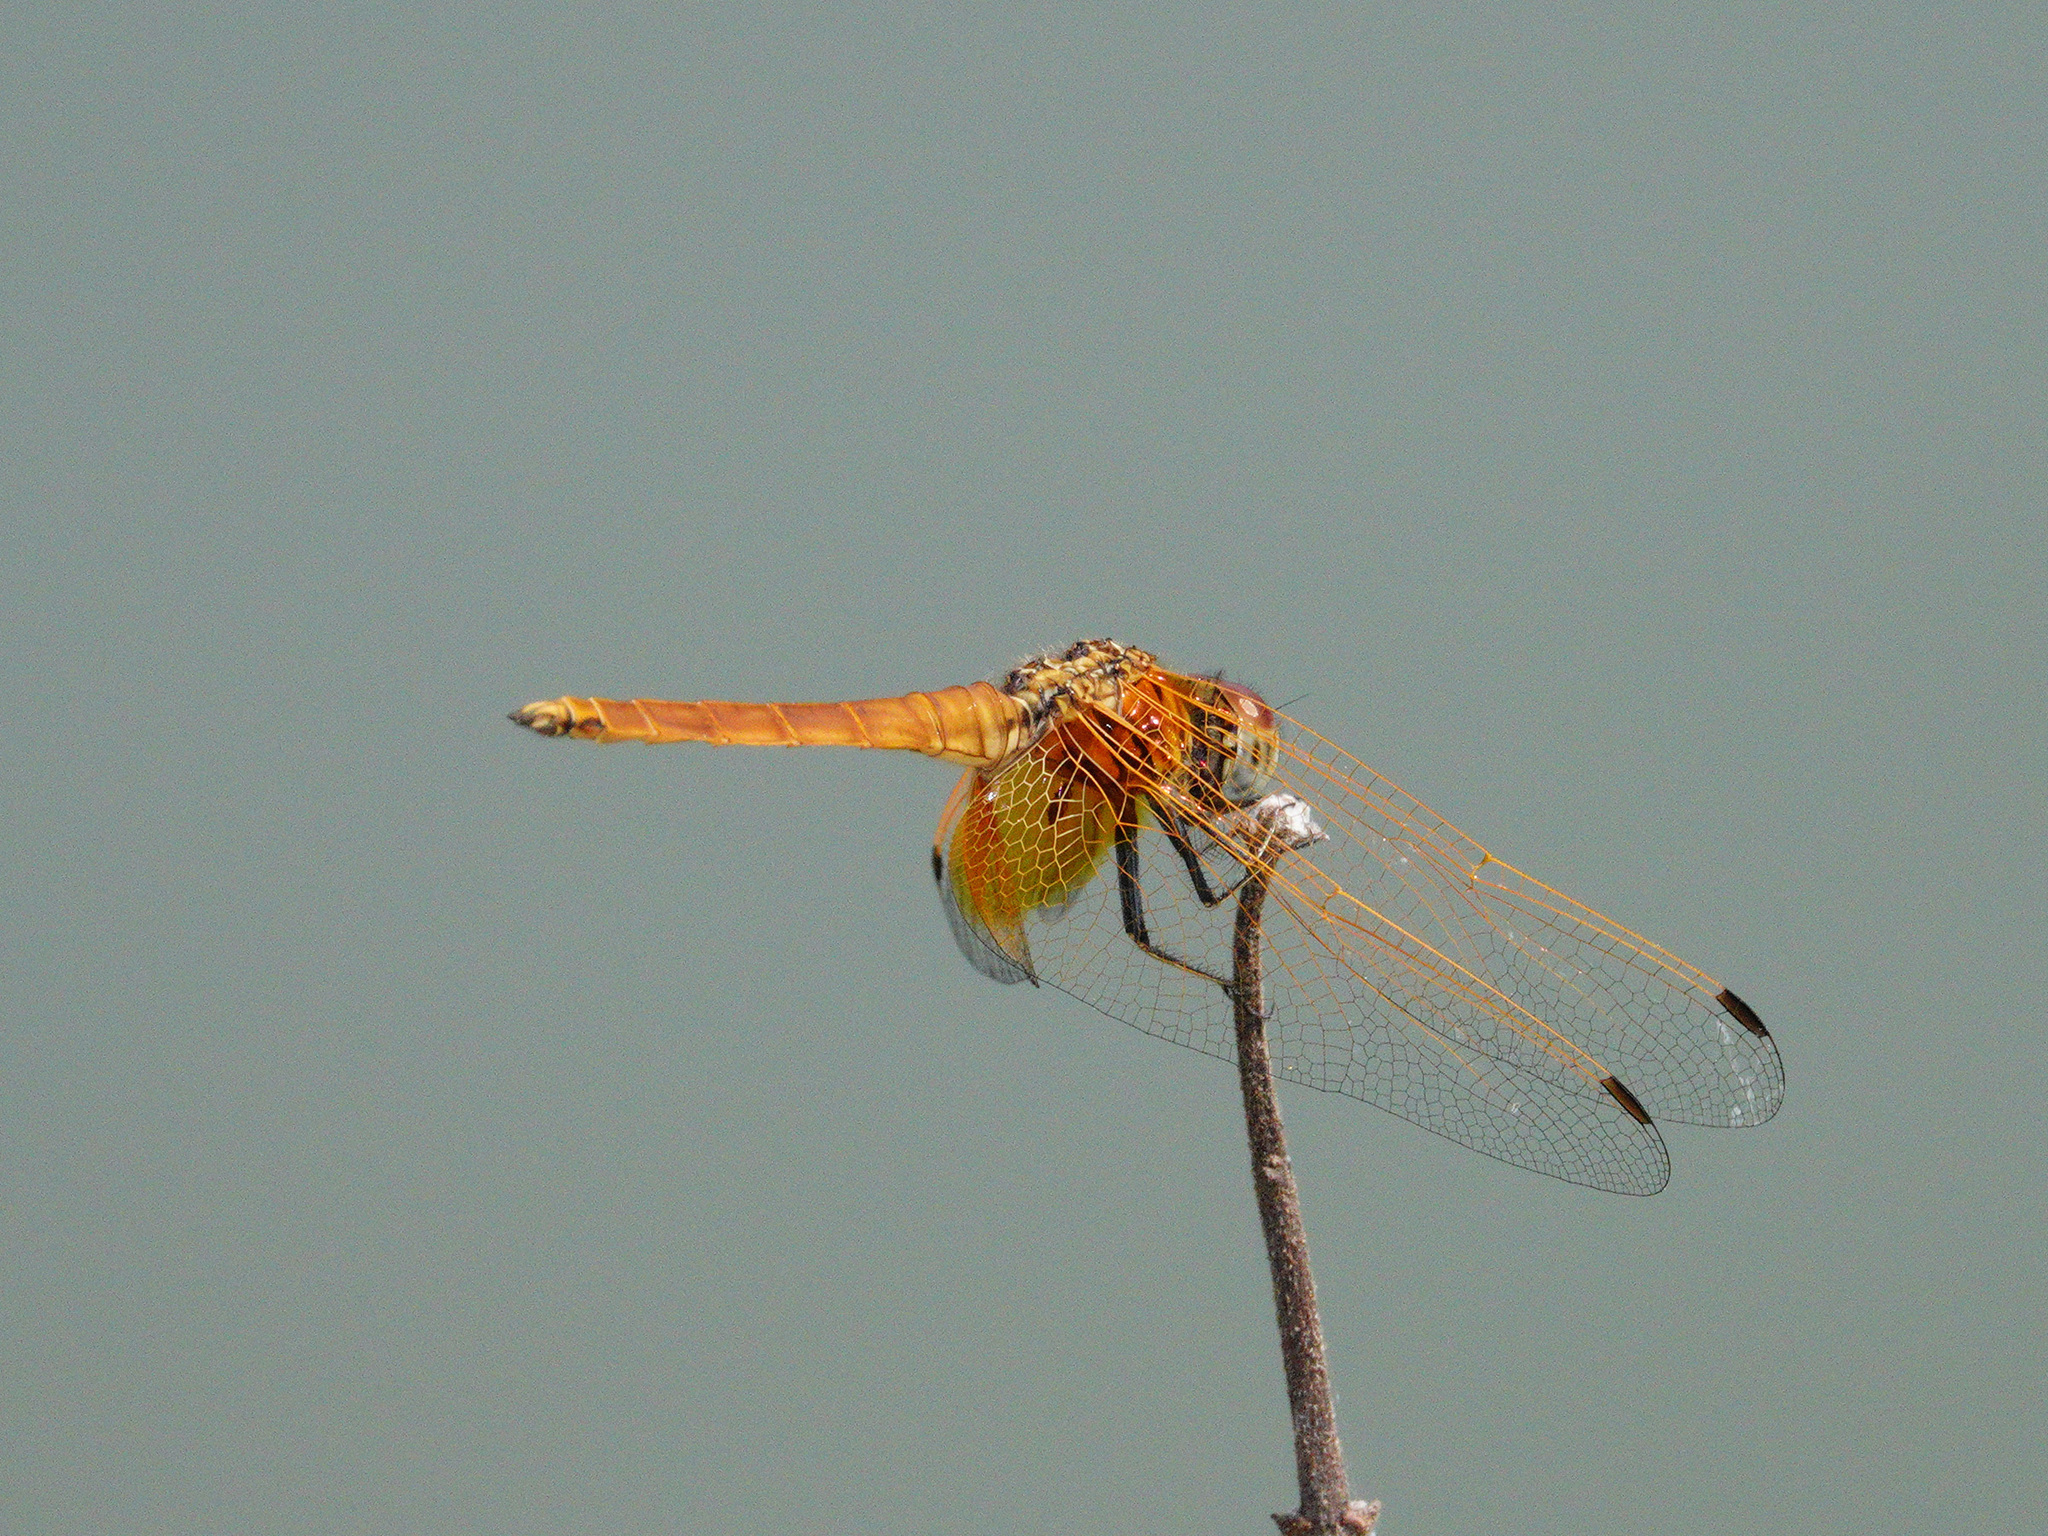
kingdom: Animalia
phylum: Arthropoda
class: Insecta
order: Odonata
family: Libellulidae
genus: Trithemis
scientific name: Trithemis aurora
